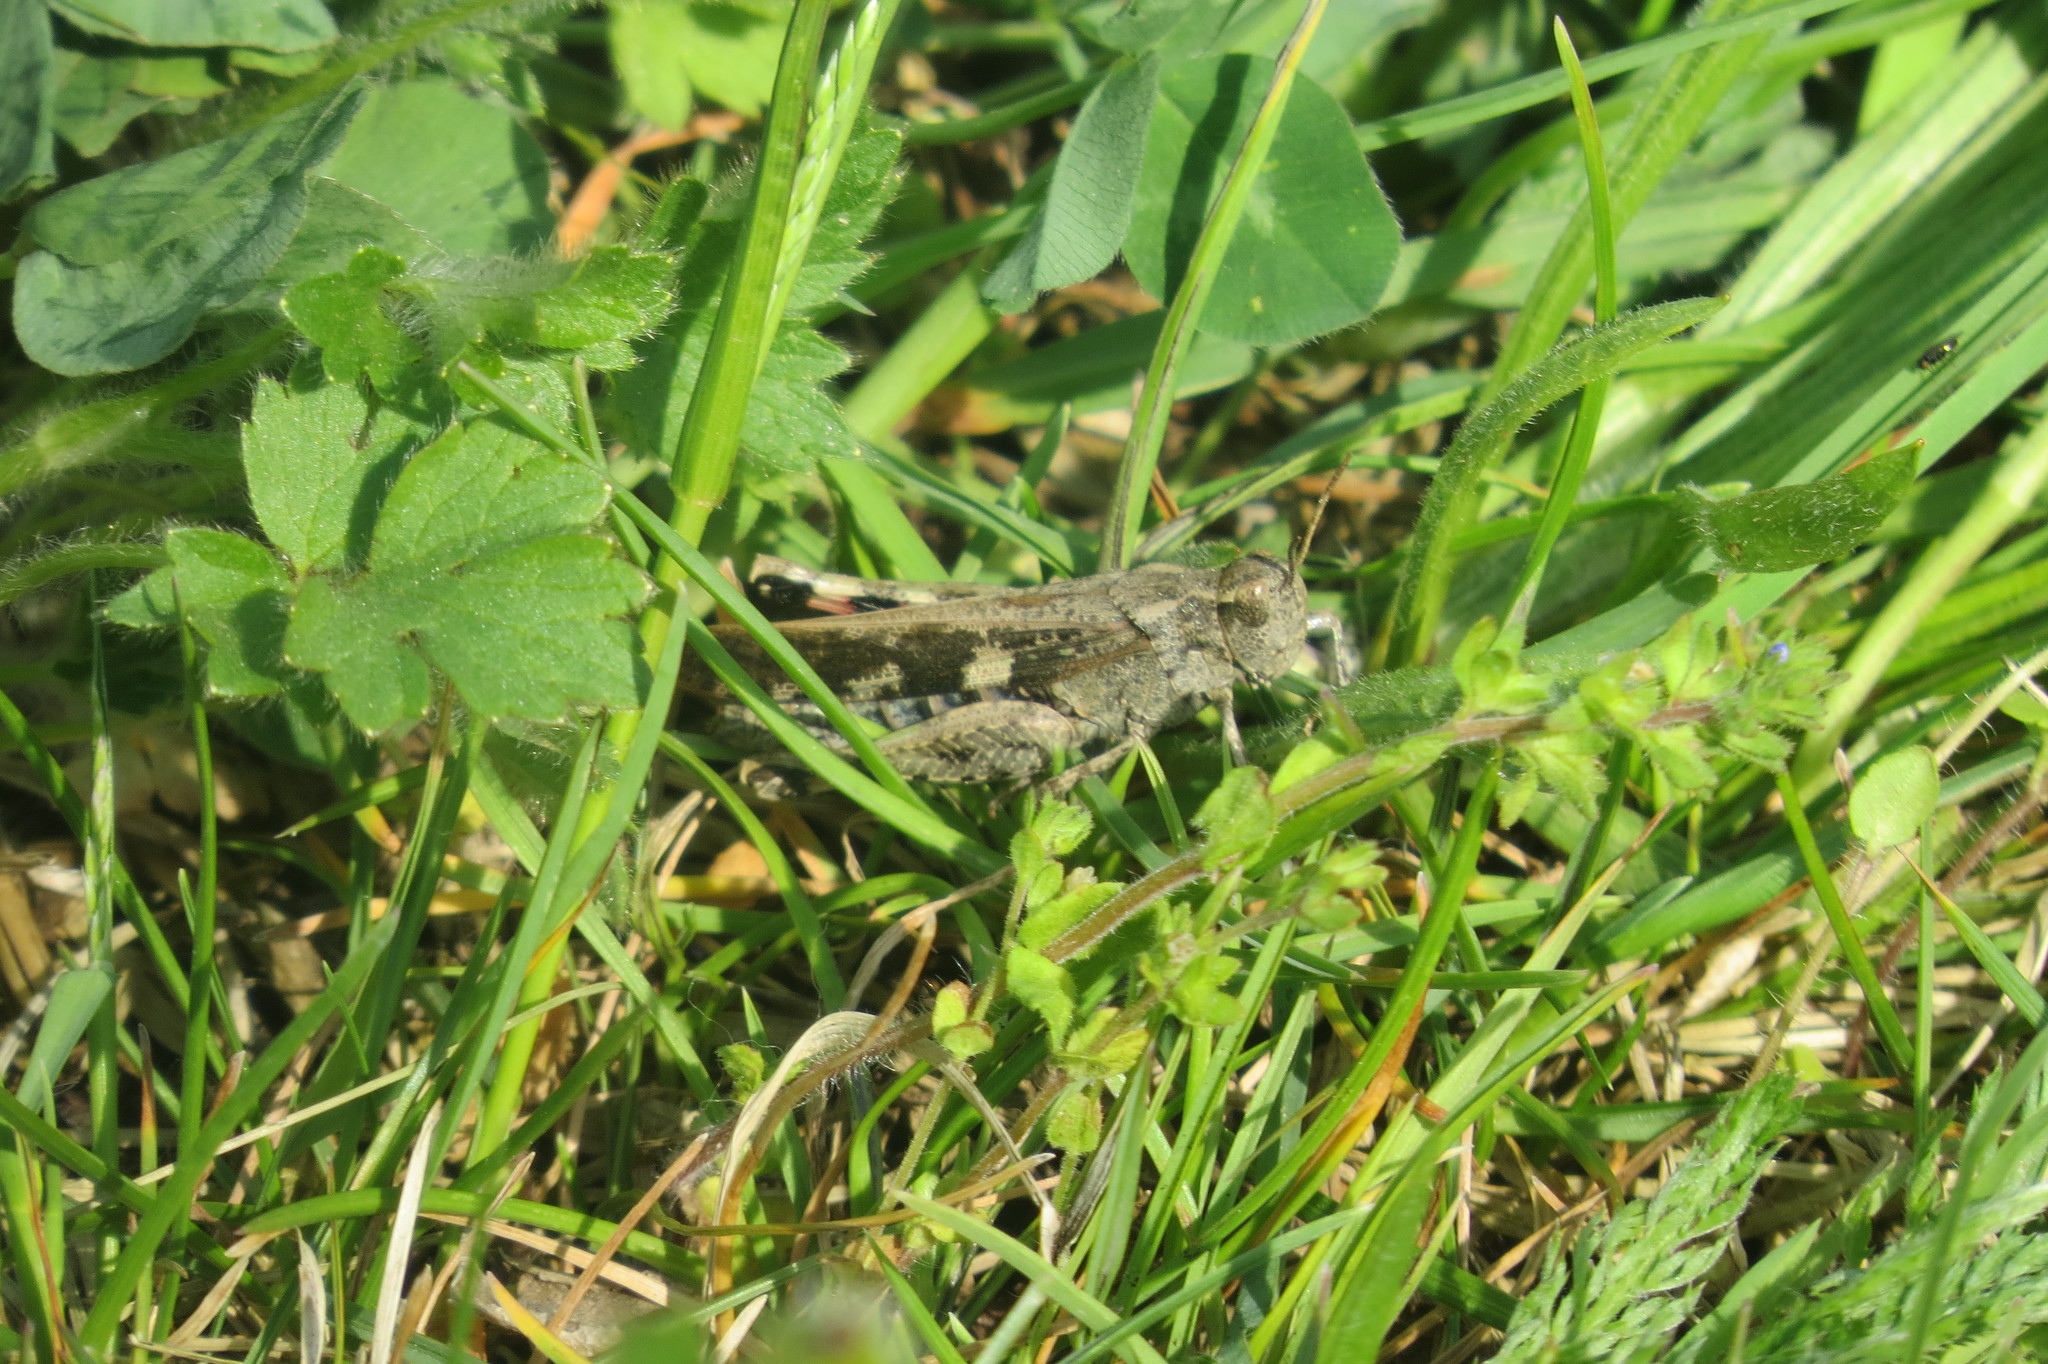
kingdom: Animalia
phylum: Arthropoda
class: Insecta
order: Orthoptera
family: Acrididae
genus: Aiolopus
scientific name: Aiolopus strepens
